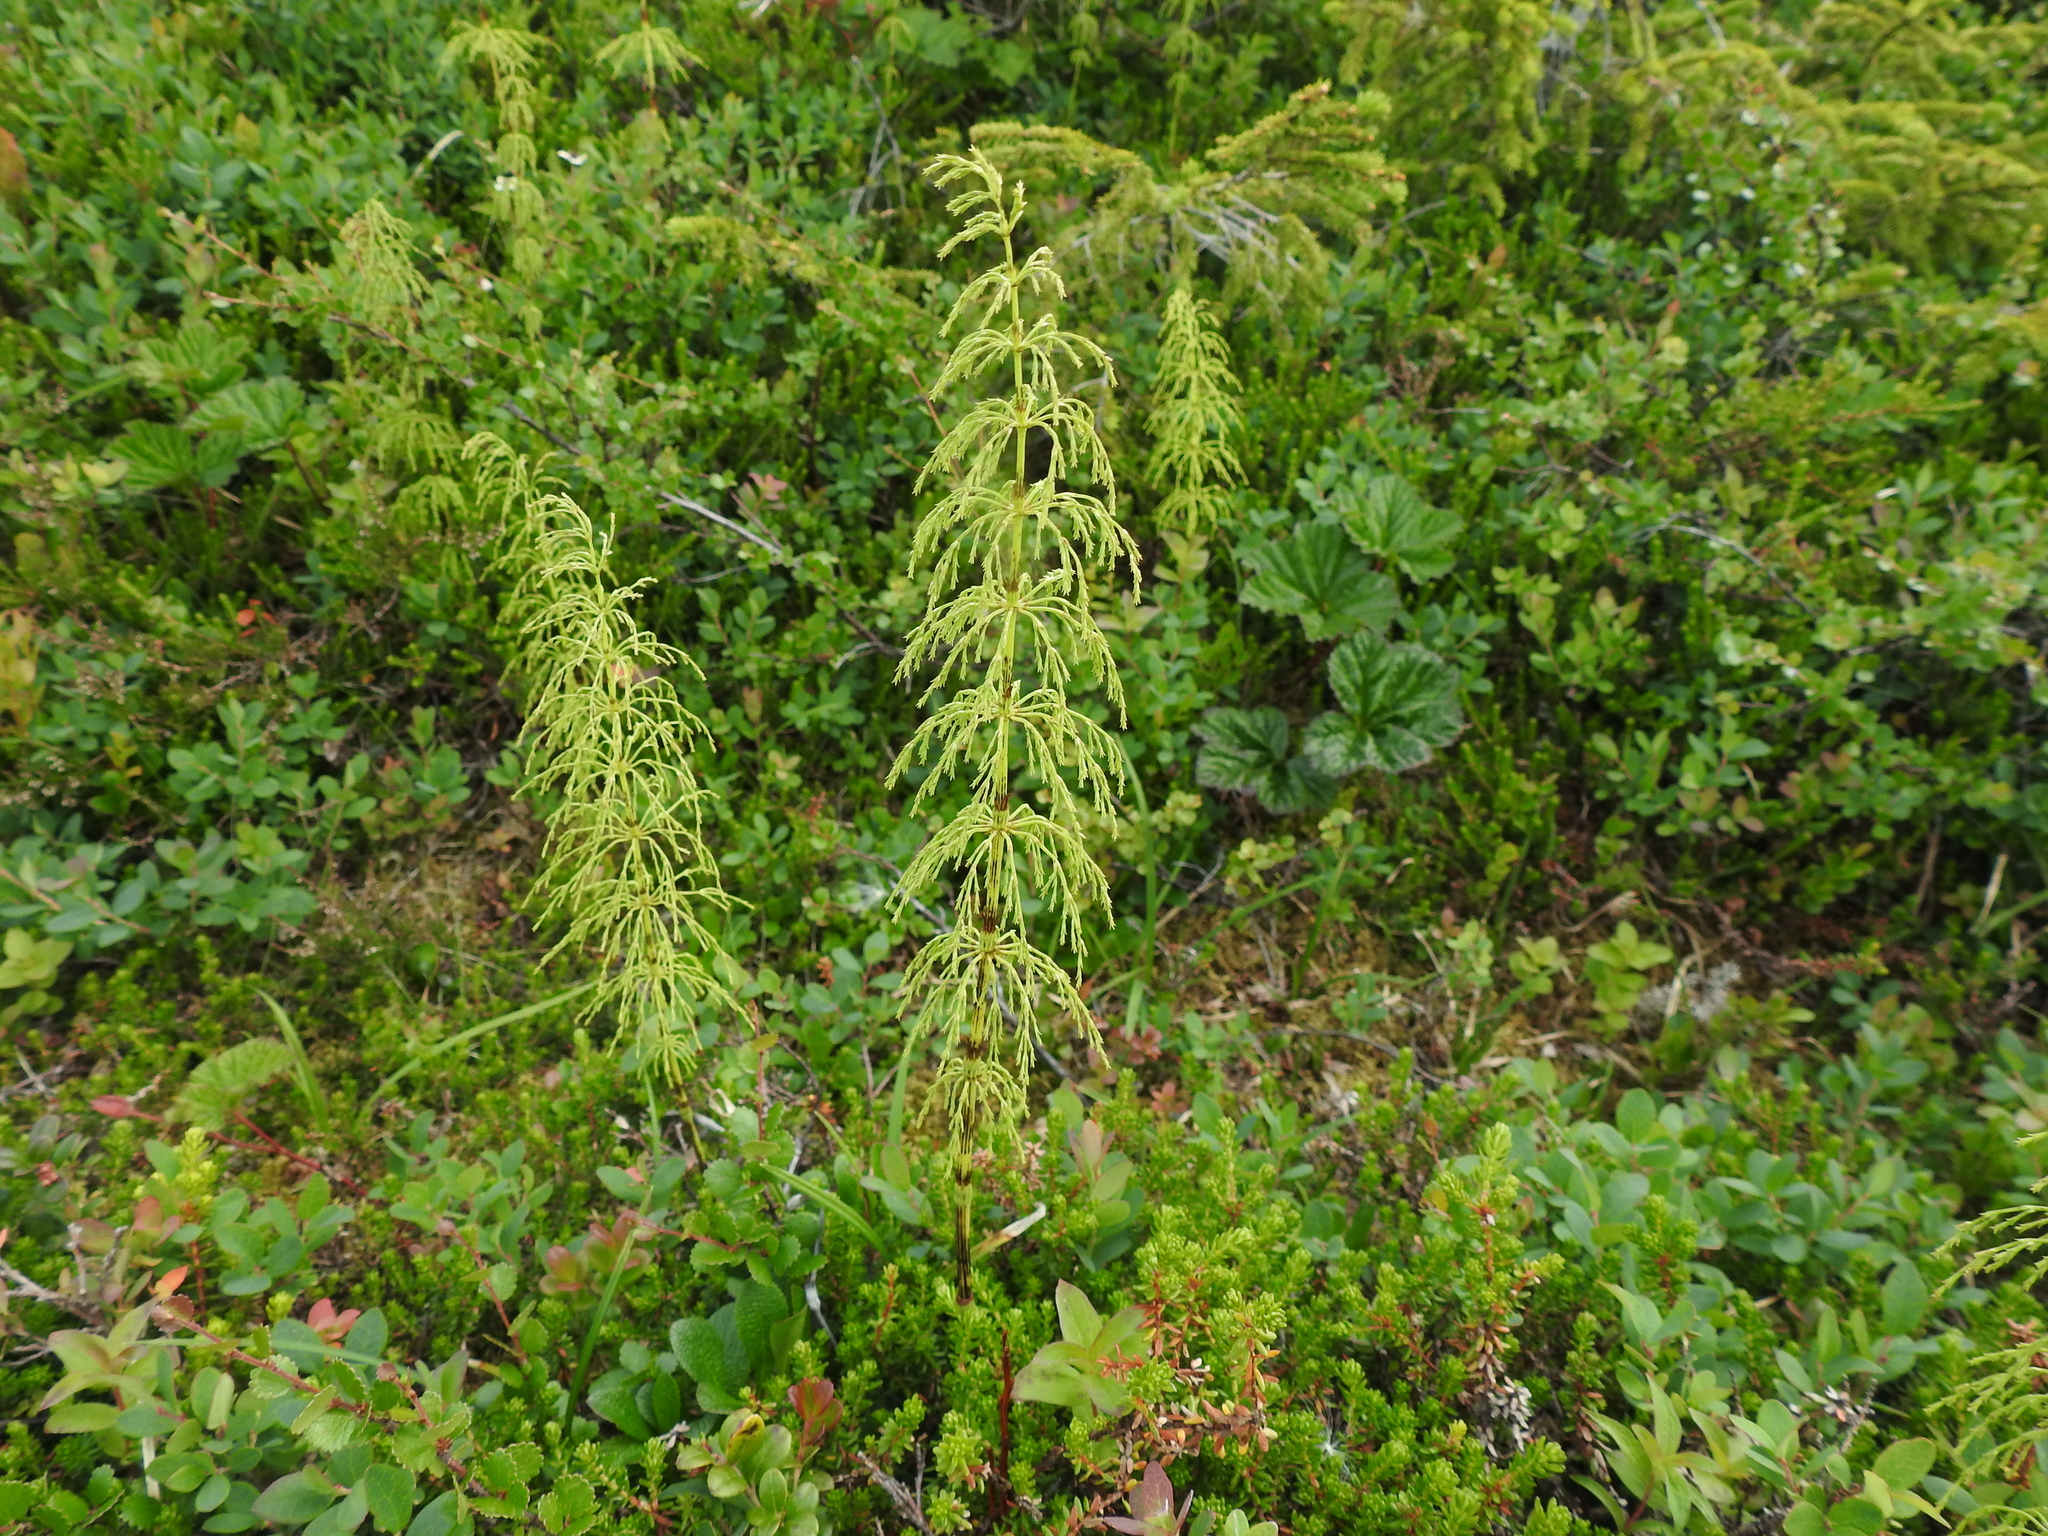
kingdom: Plantae
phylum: Tracheophyta
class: Polypodiopsida
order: Equisetales
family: Equisetaceae
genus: Equisetum
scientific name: Equisetum sylvaticum
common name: Wood horsetail
